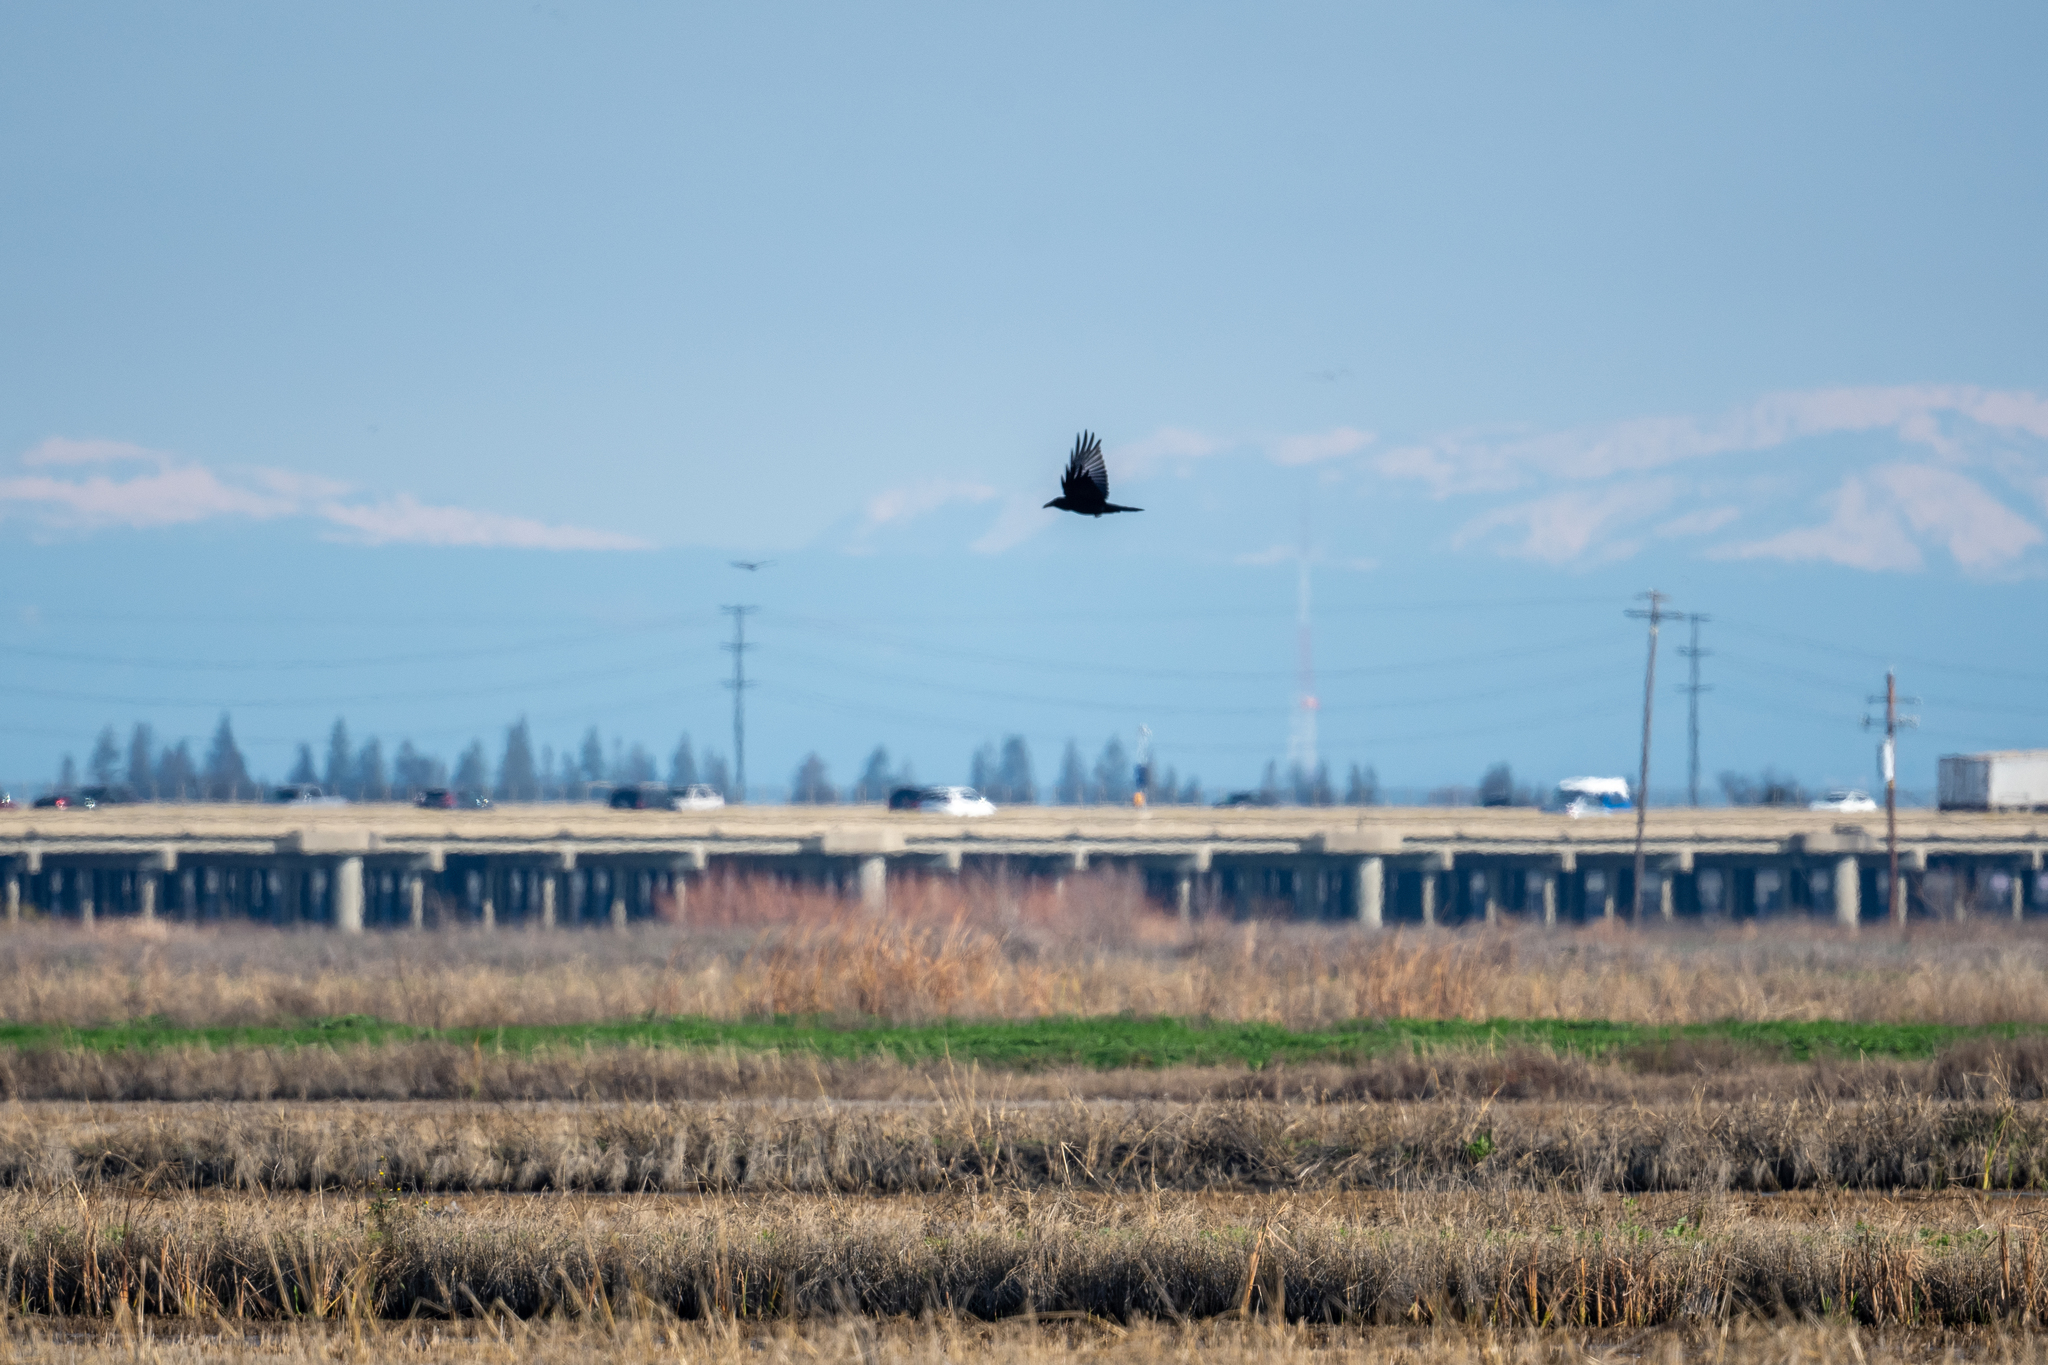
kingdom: Animalia
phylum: Chordata
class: Aves
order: Passeriformes
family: Corvidae
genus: Corvus
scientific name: Corvus corax
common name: Common raven
